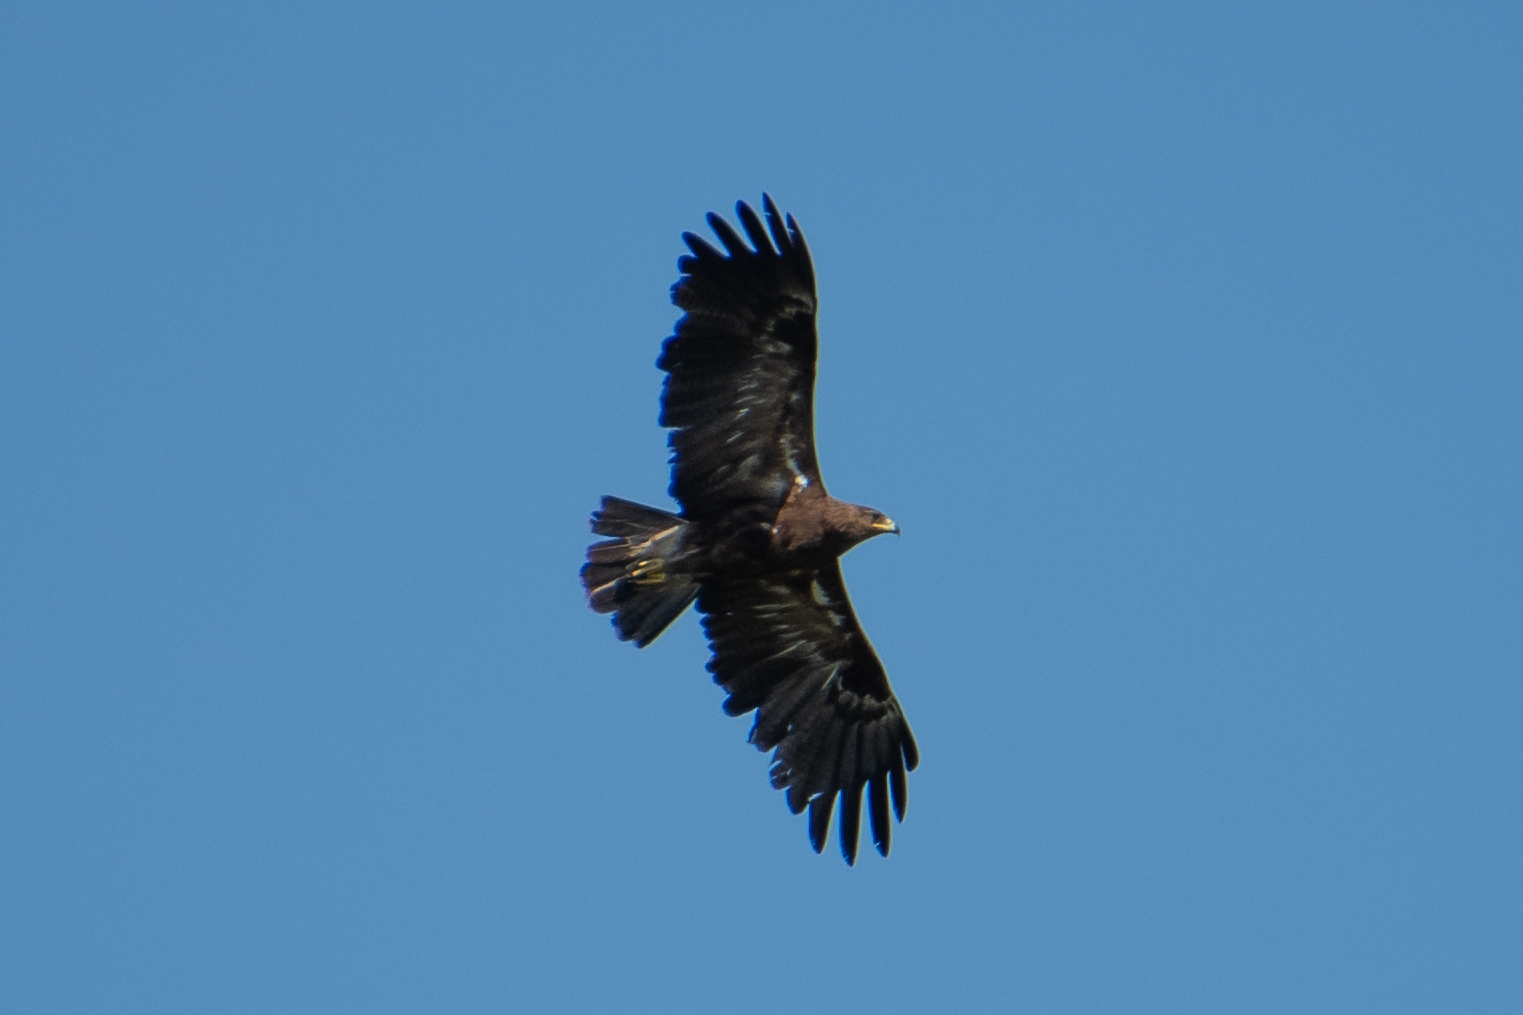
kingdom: Animalia
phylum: Chordata
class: Aves
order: Accipitriformes
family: Accipitridae
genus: Aquila
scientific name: Aquila pomarina
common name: Lesser spotted eagle
